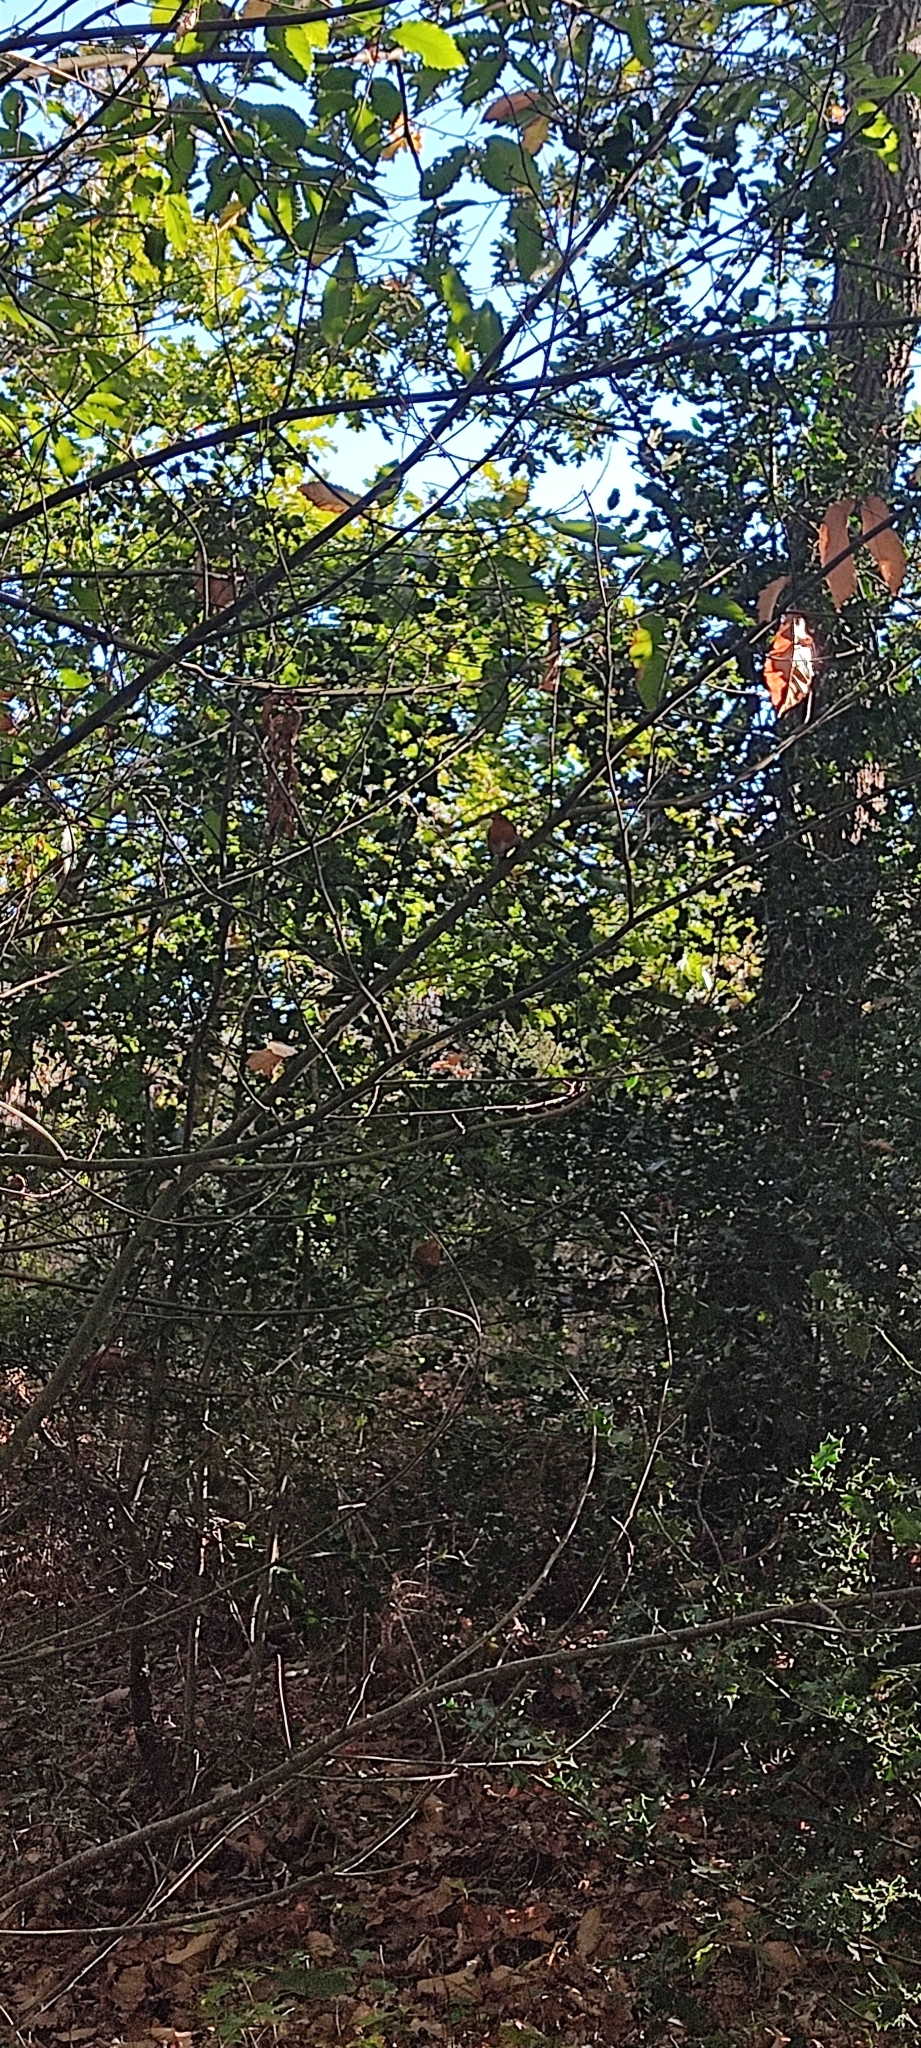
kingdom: Animalia
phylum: Chordata
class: Aves
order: Passeriformes
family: Muscicapidae
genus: Erithacus
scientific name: Erithacus rubecula
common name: European robin
